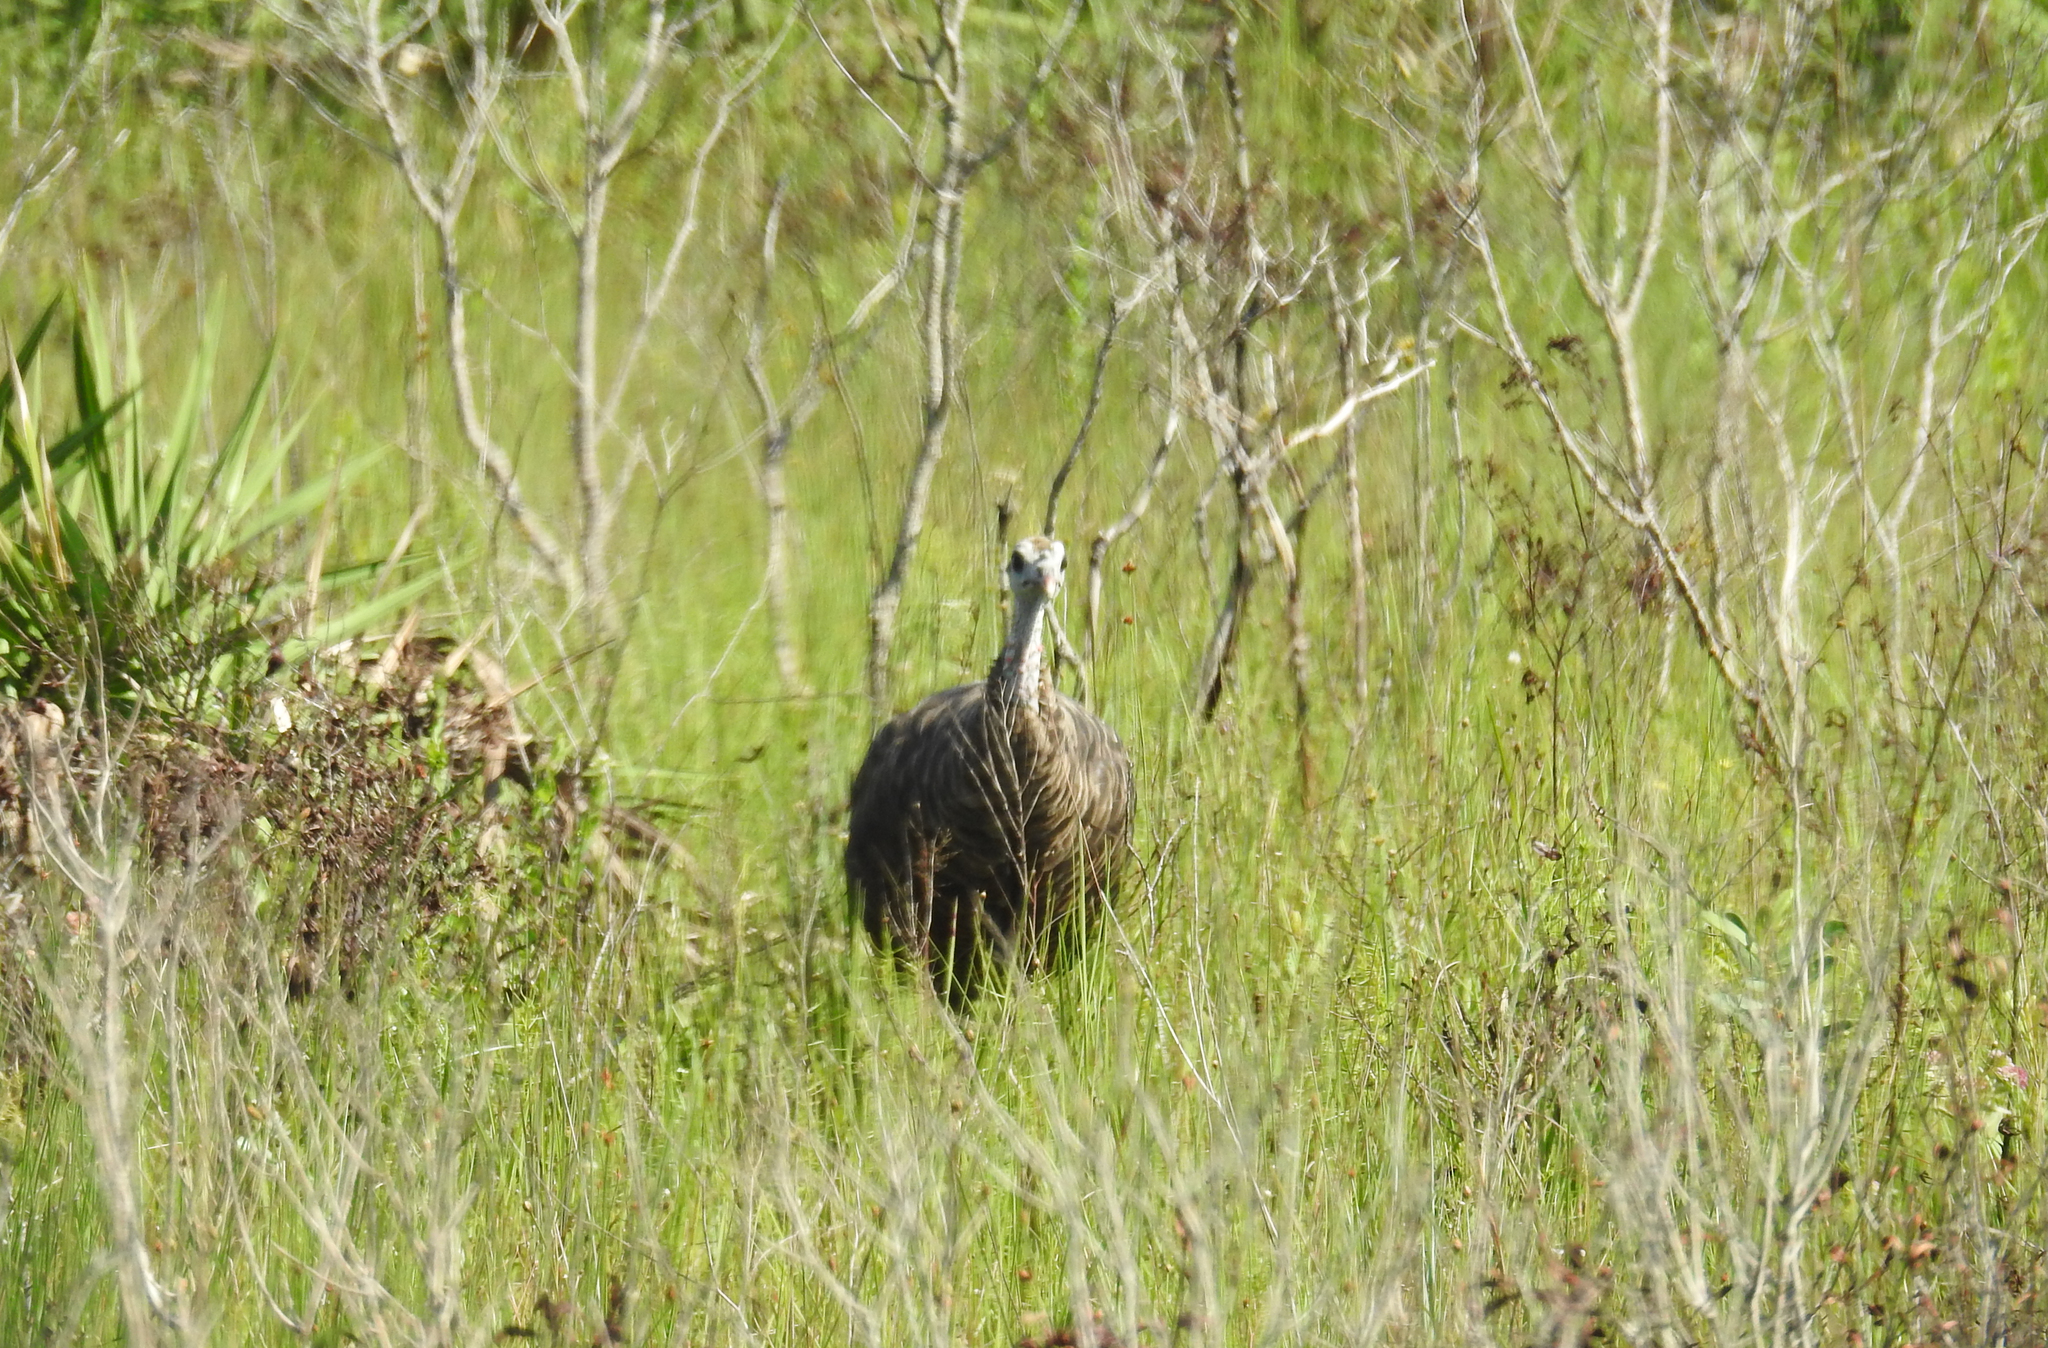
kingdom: Animalia
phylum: Chordata
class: Aves
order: Galliformes
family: Phasianidae
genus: Meleagris
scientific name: Meleagris gallopavo
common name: Wild turkey
